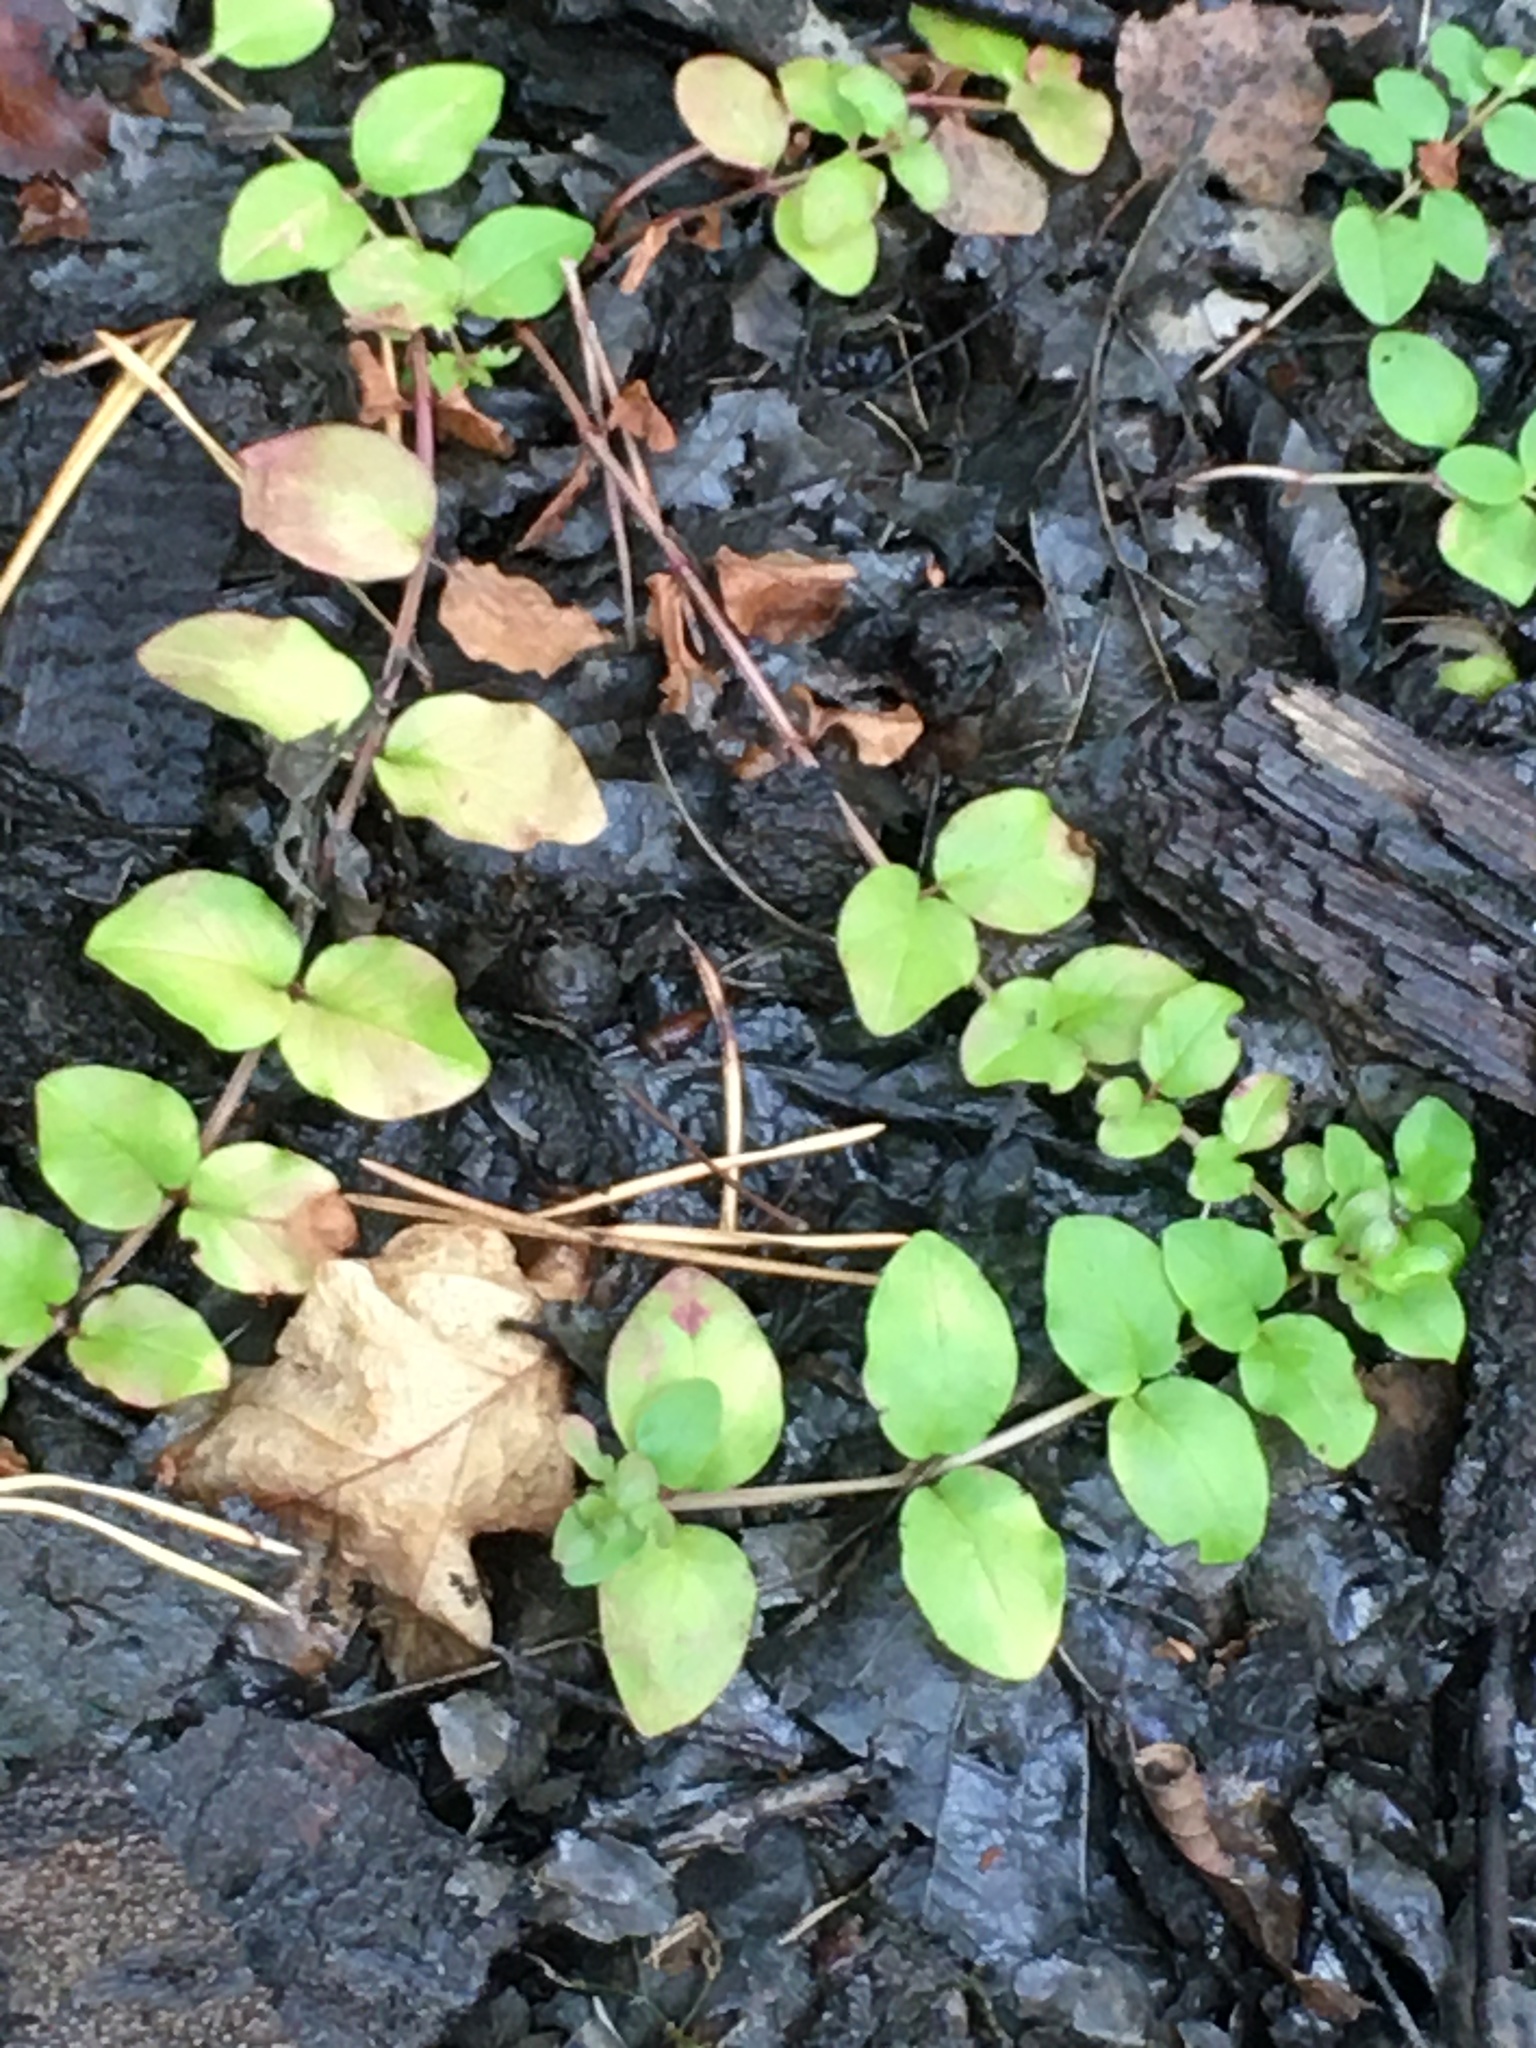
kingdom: Plantae
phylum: Tracheophyta
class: Magnoliopsida
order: Ericales
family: Primulaceae
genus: Lysimachia
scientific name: Lysimachia nummularia
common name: Moneywort
